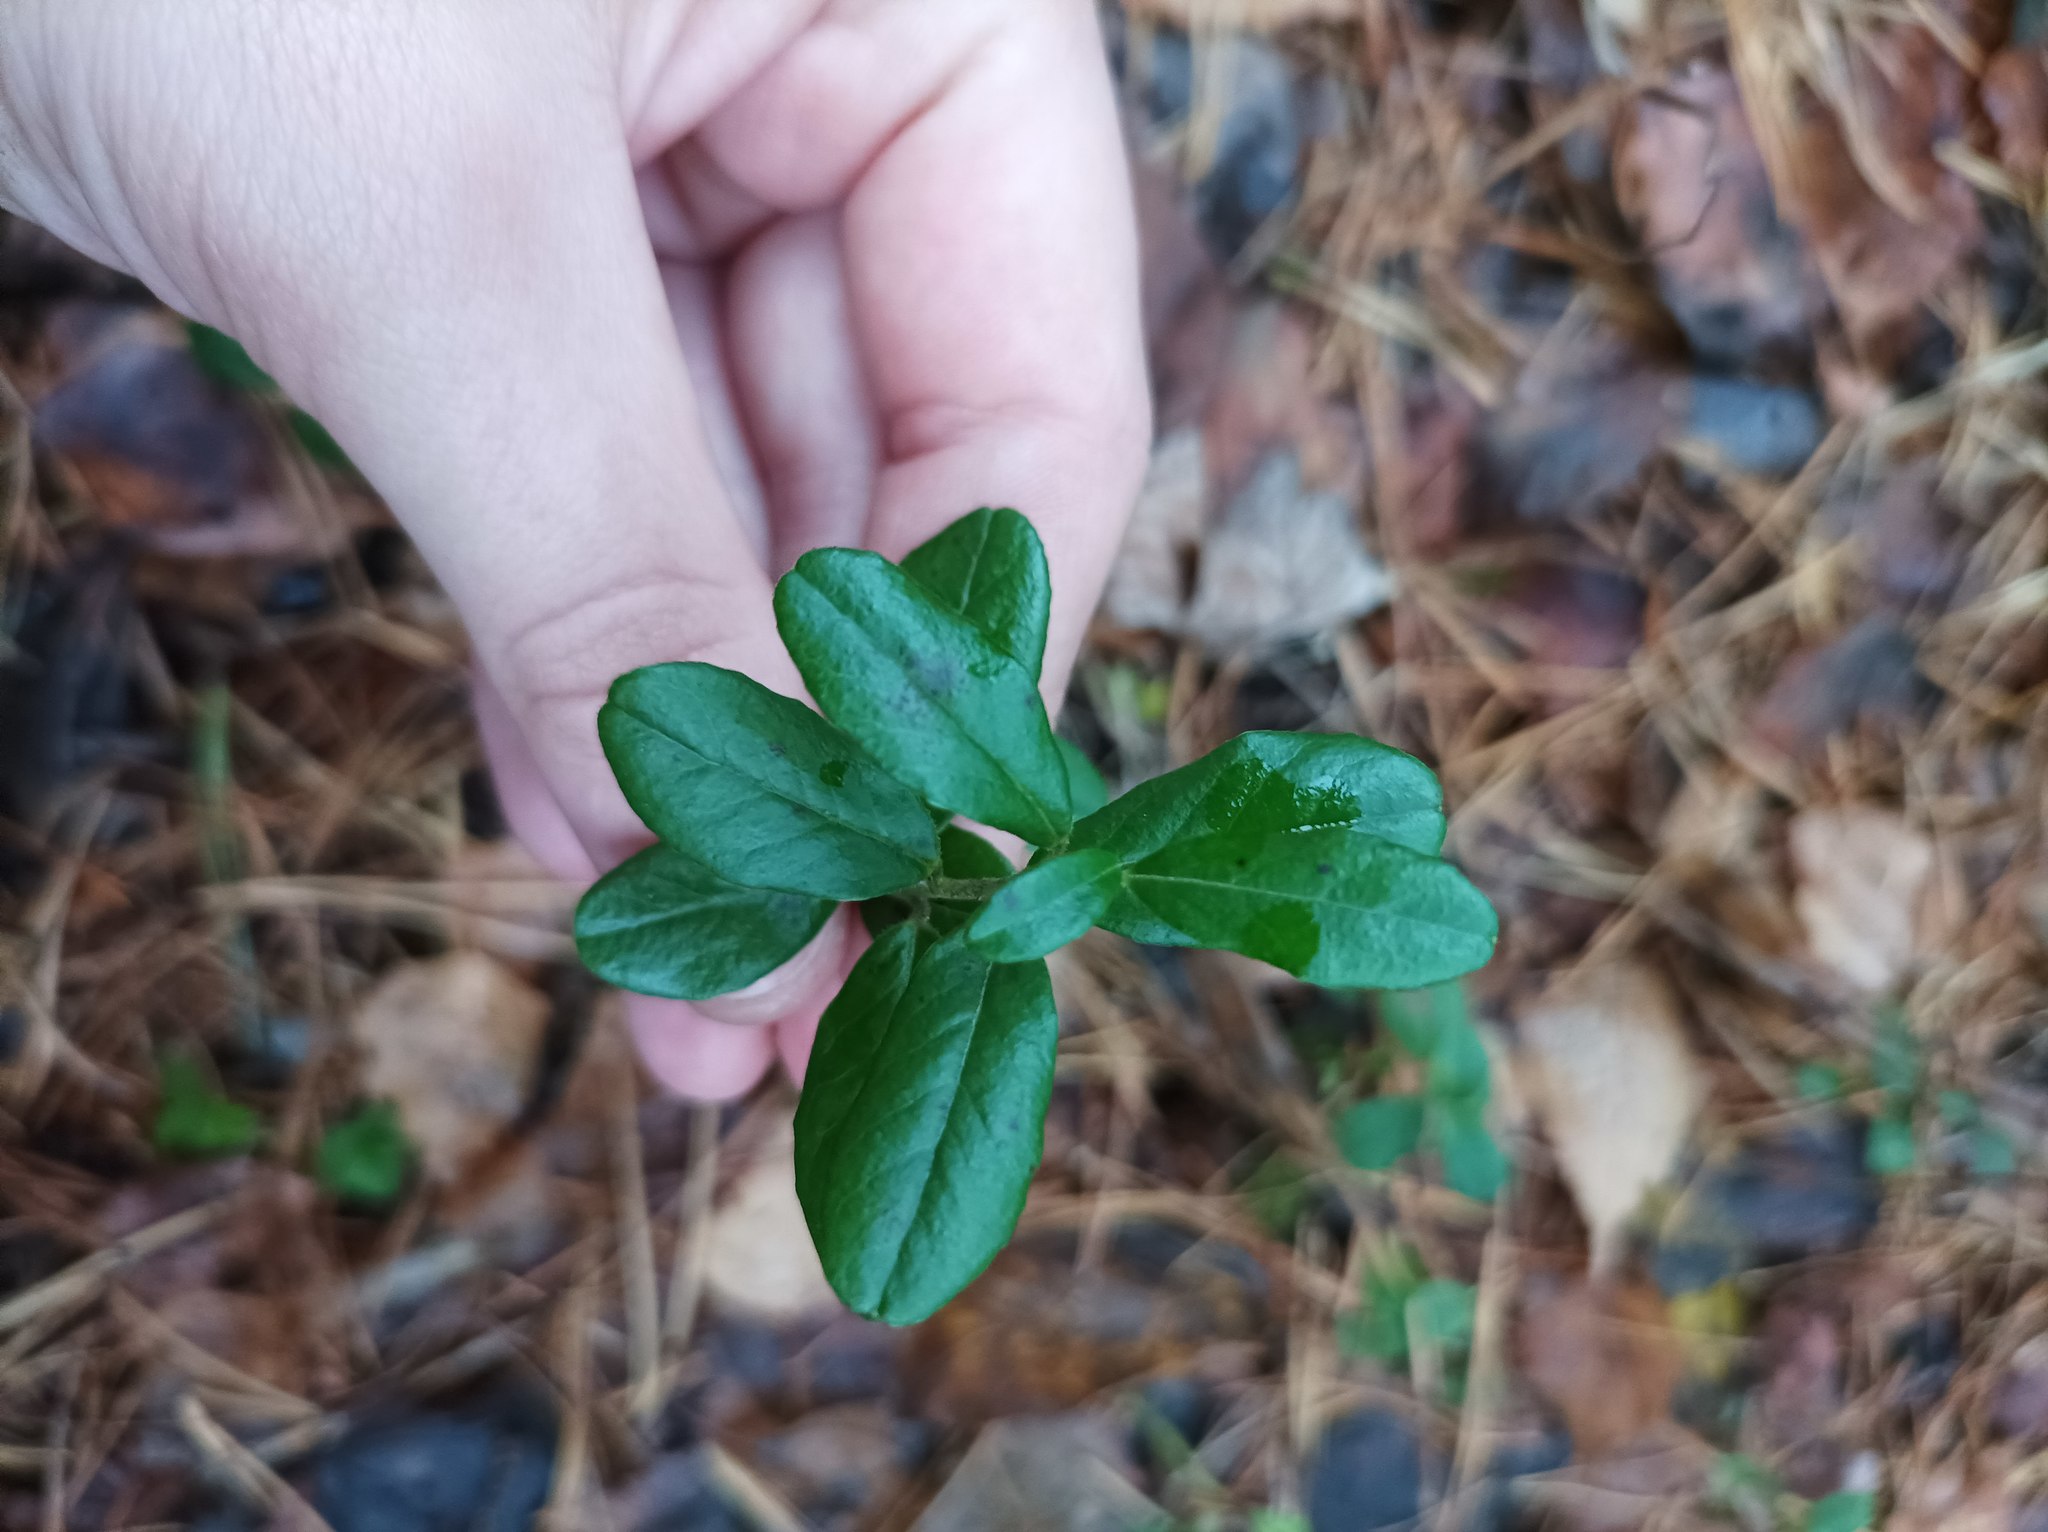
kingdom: Plantae
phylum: Tracheophyta
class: Magnoliopsida
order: Ericales
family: Ericaceae
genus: Vaccinium
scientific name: Vaccinium vitis-idaea
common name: Cowberry
